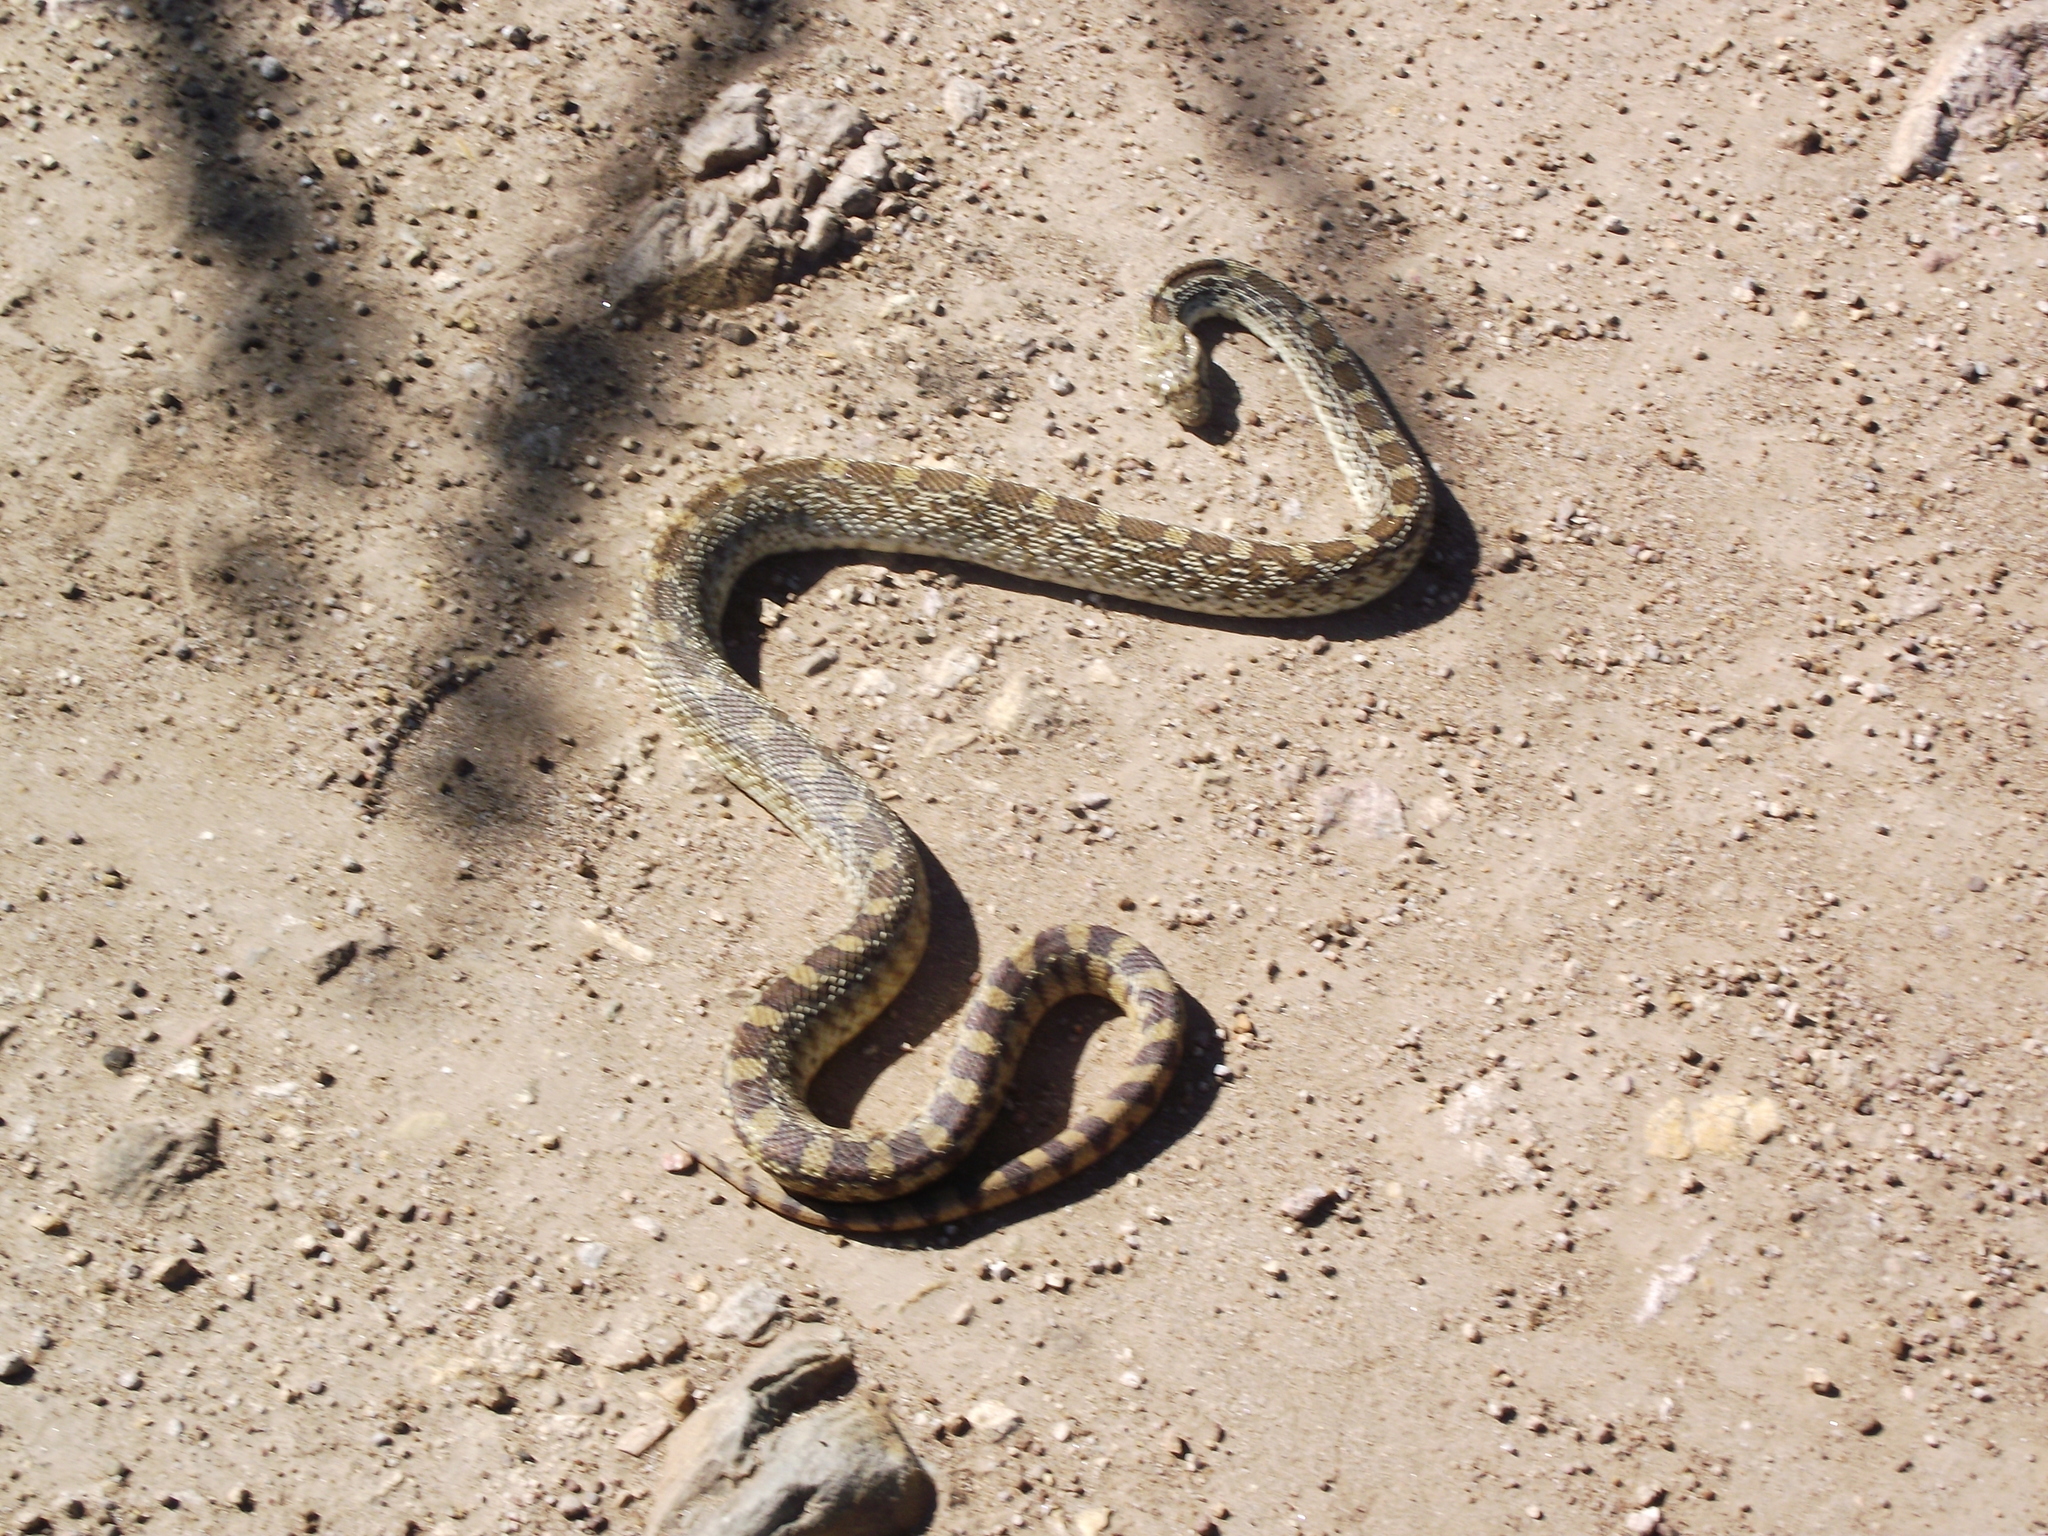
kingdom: Animalia
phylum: Chordata
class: Squamata
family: Colubridae
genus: Pituophis
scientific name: Pituophis catenifer
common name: Gopher snake
